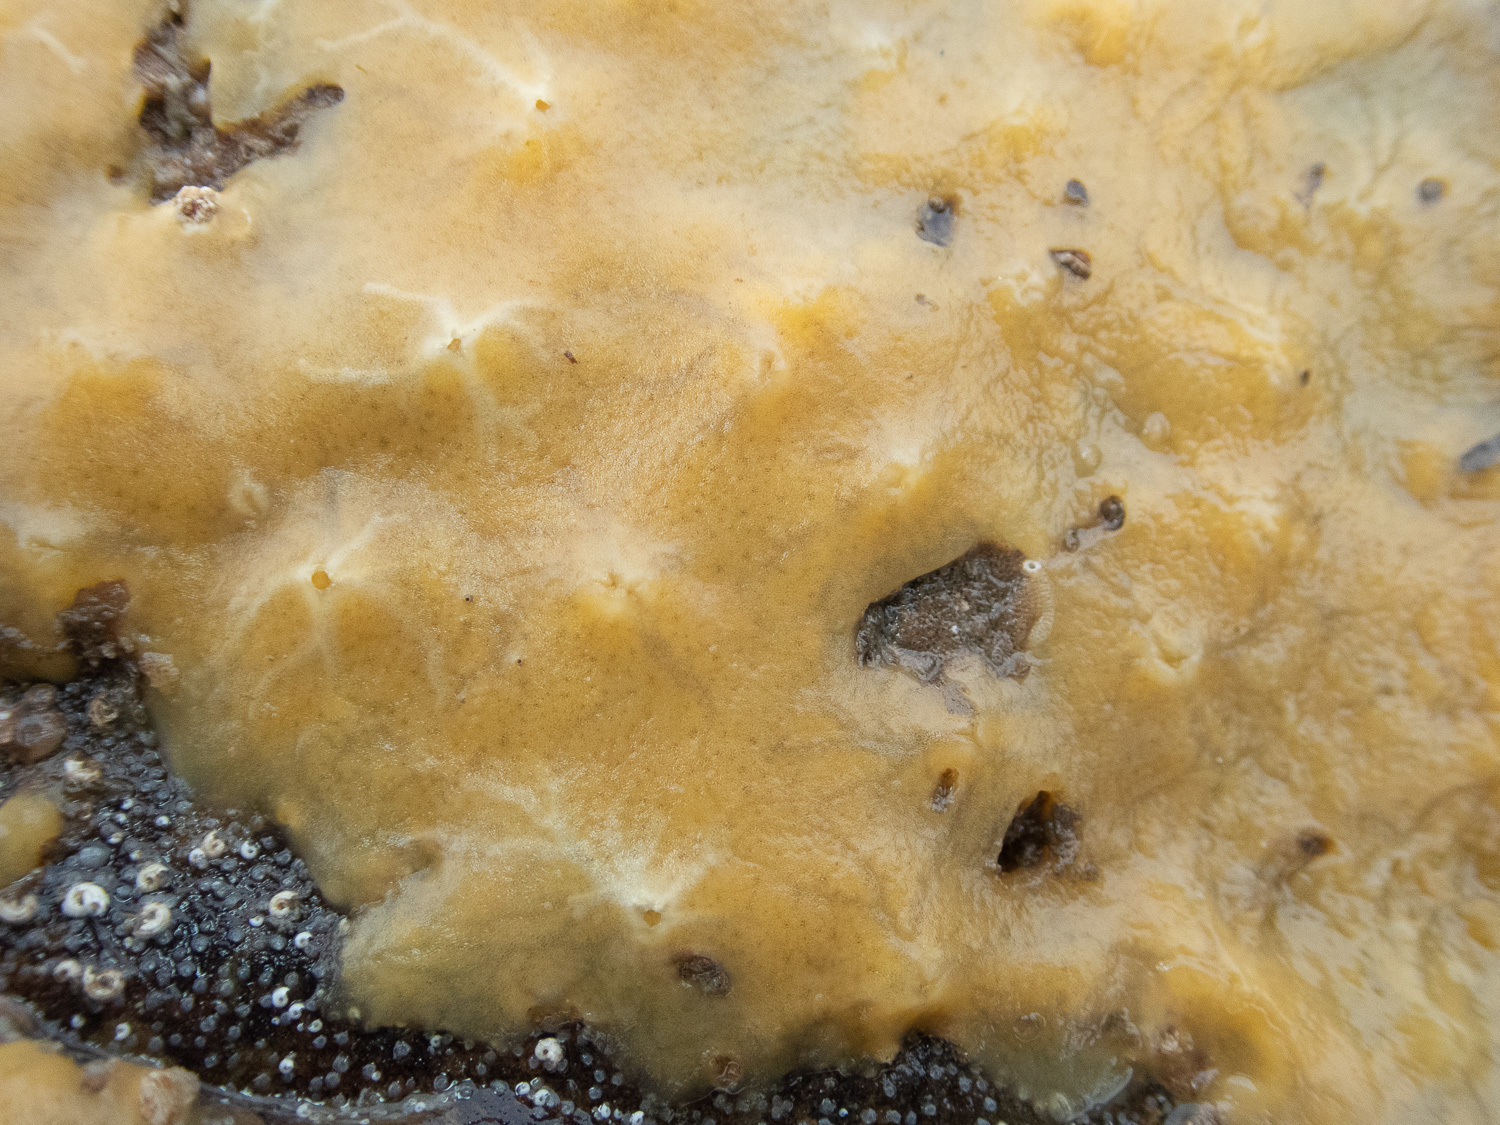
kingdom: Animalia
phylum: Porifera
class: Demospongiae
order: Suberitida
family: Halichondriidae
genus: Halichondria
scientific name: Halichondria panicea
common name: Breadcrumb sponge
